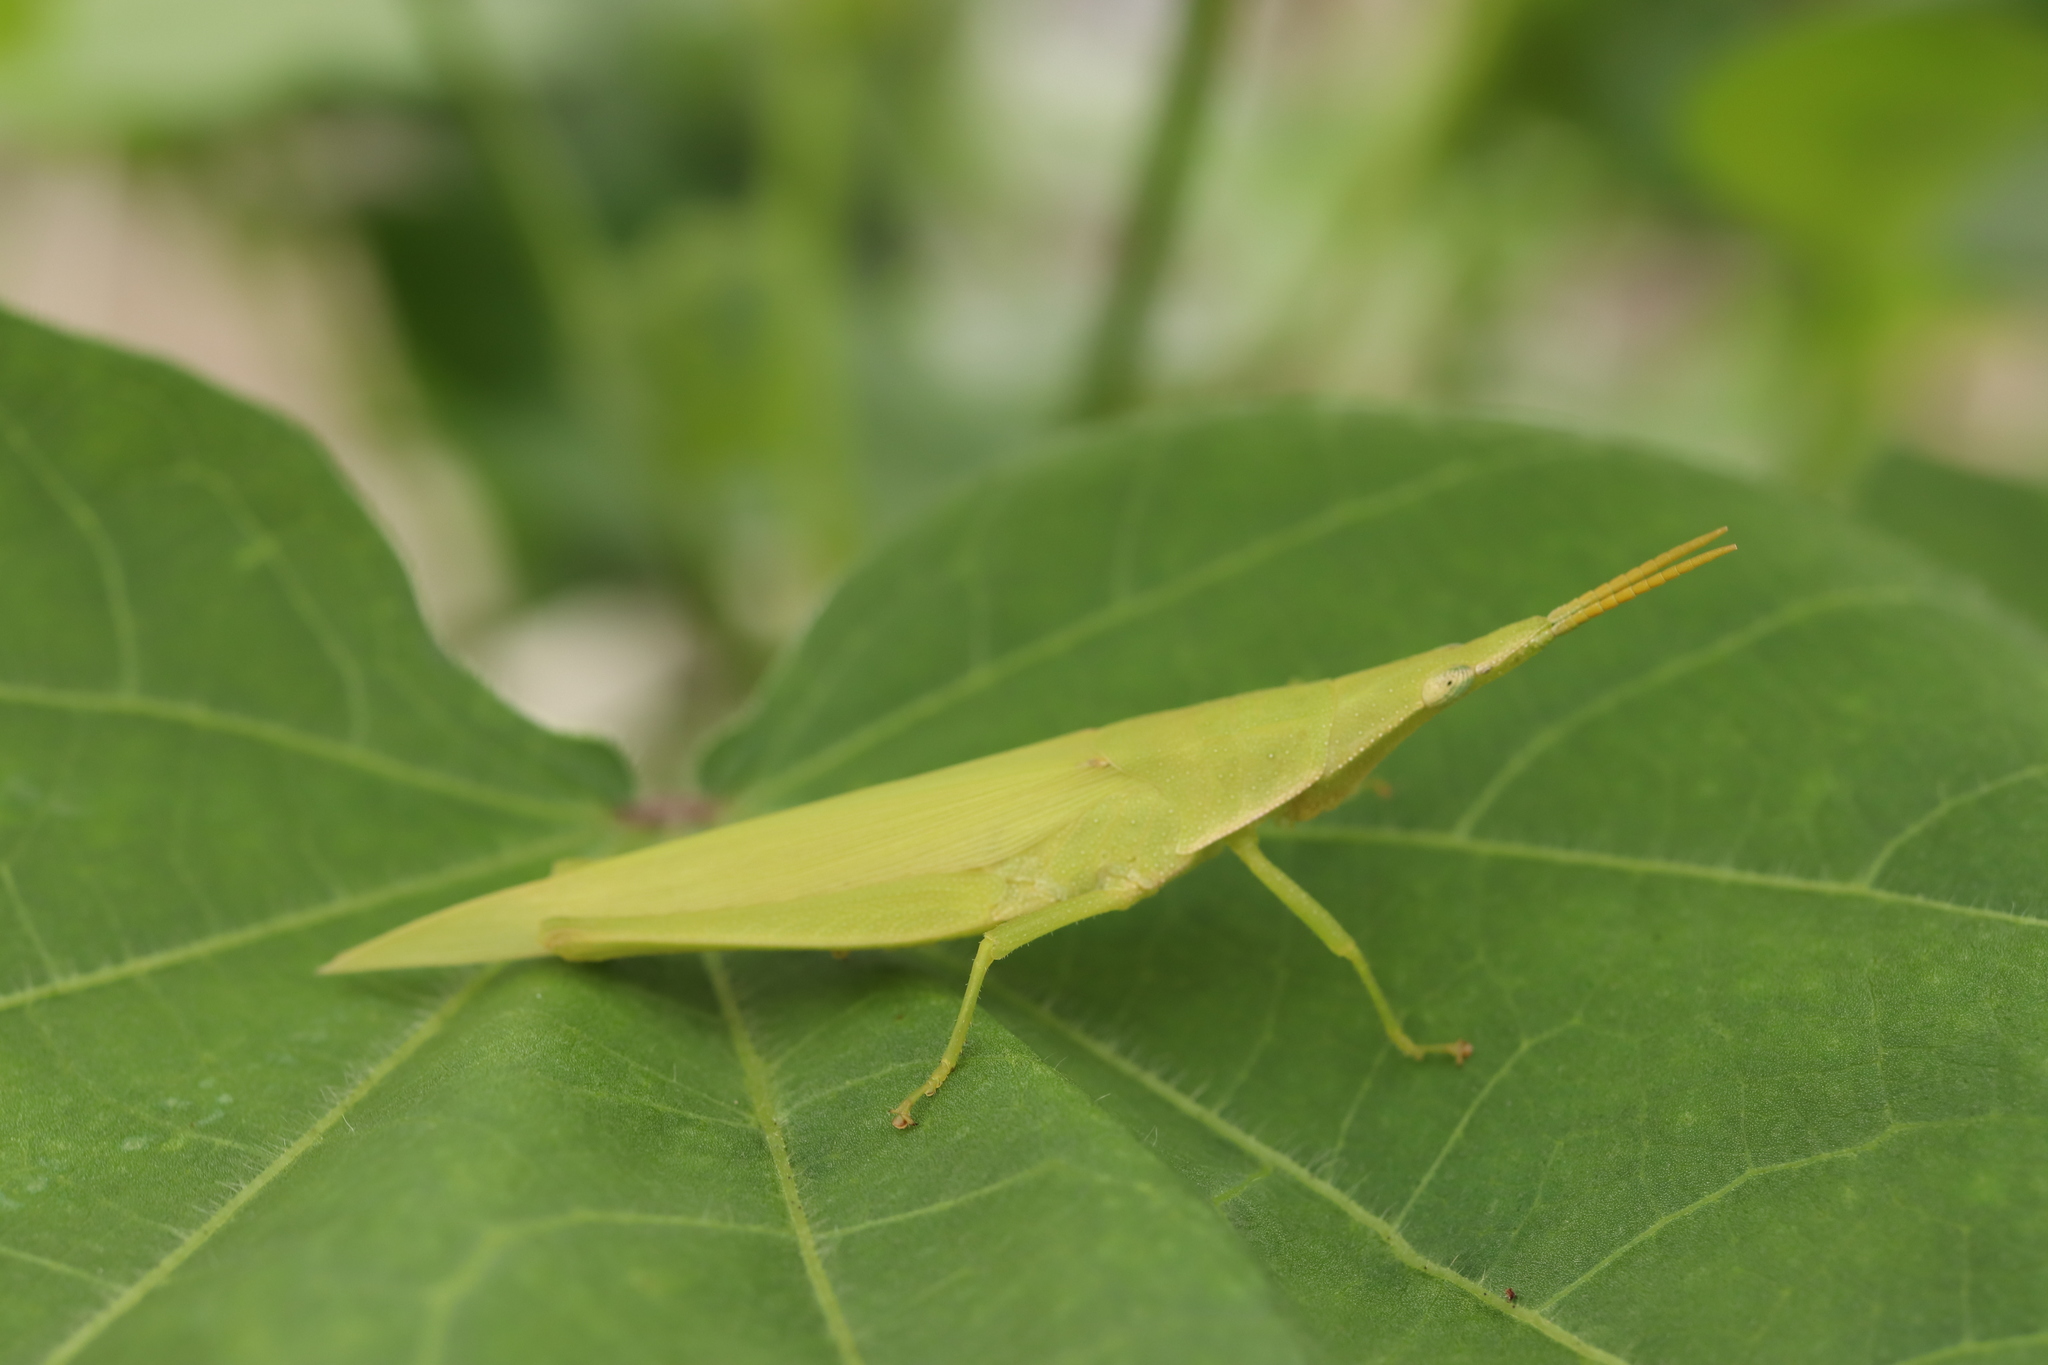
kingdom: Animalia
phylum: Arthropoda
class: Insecta
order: Orthoptera
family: Pyrgomorphidae
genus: Atractomorpha
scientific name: Atractomorpha lata
